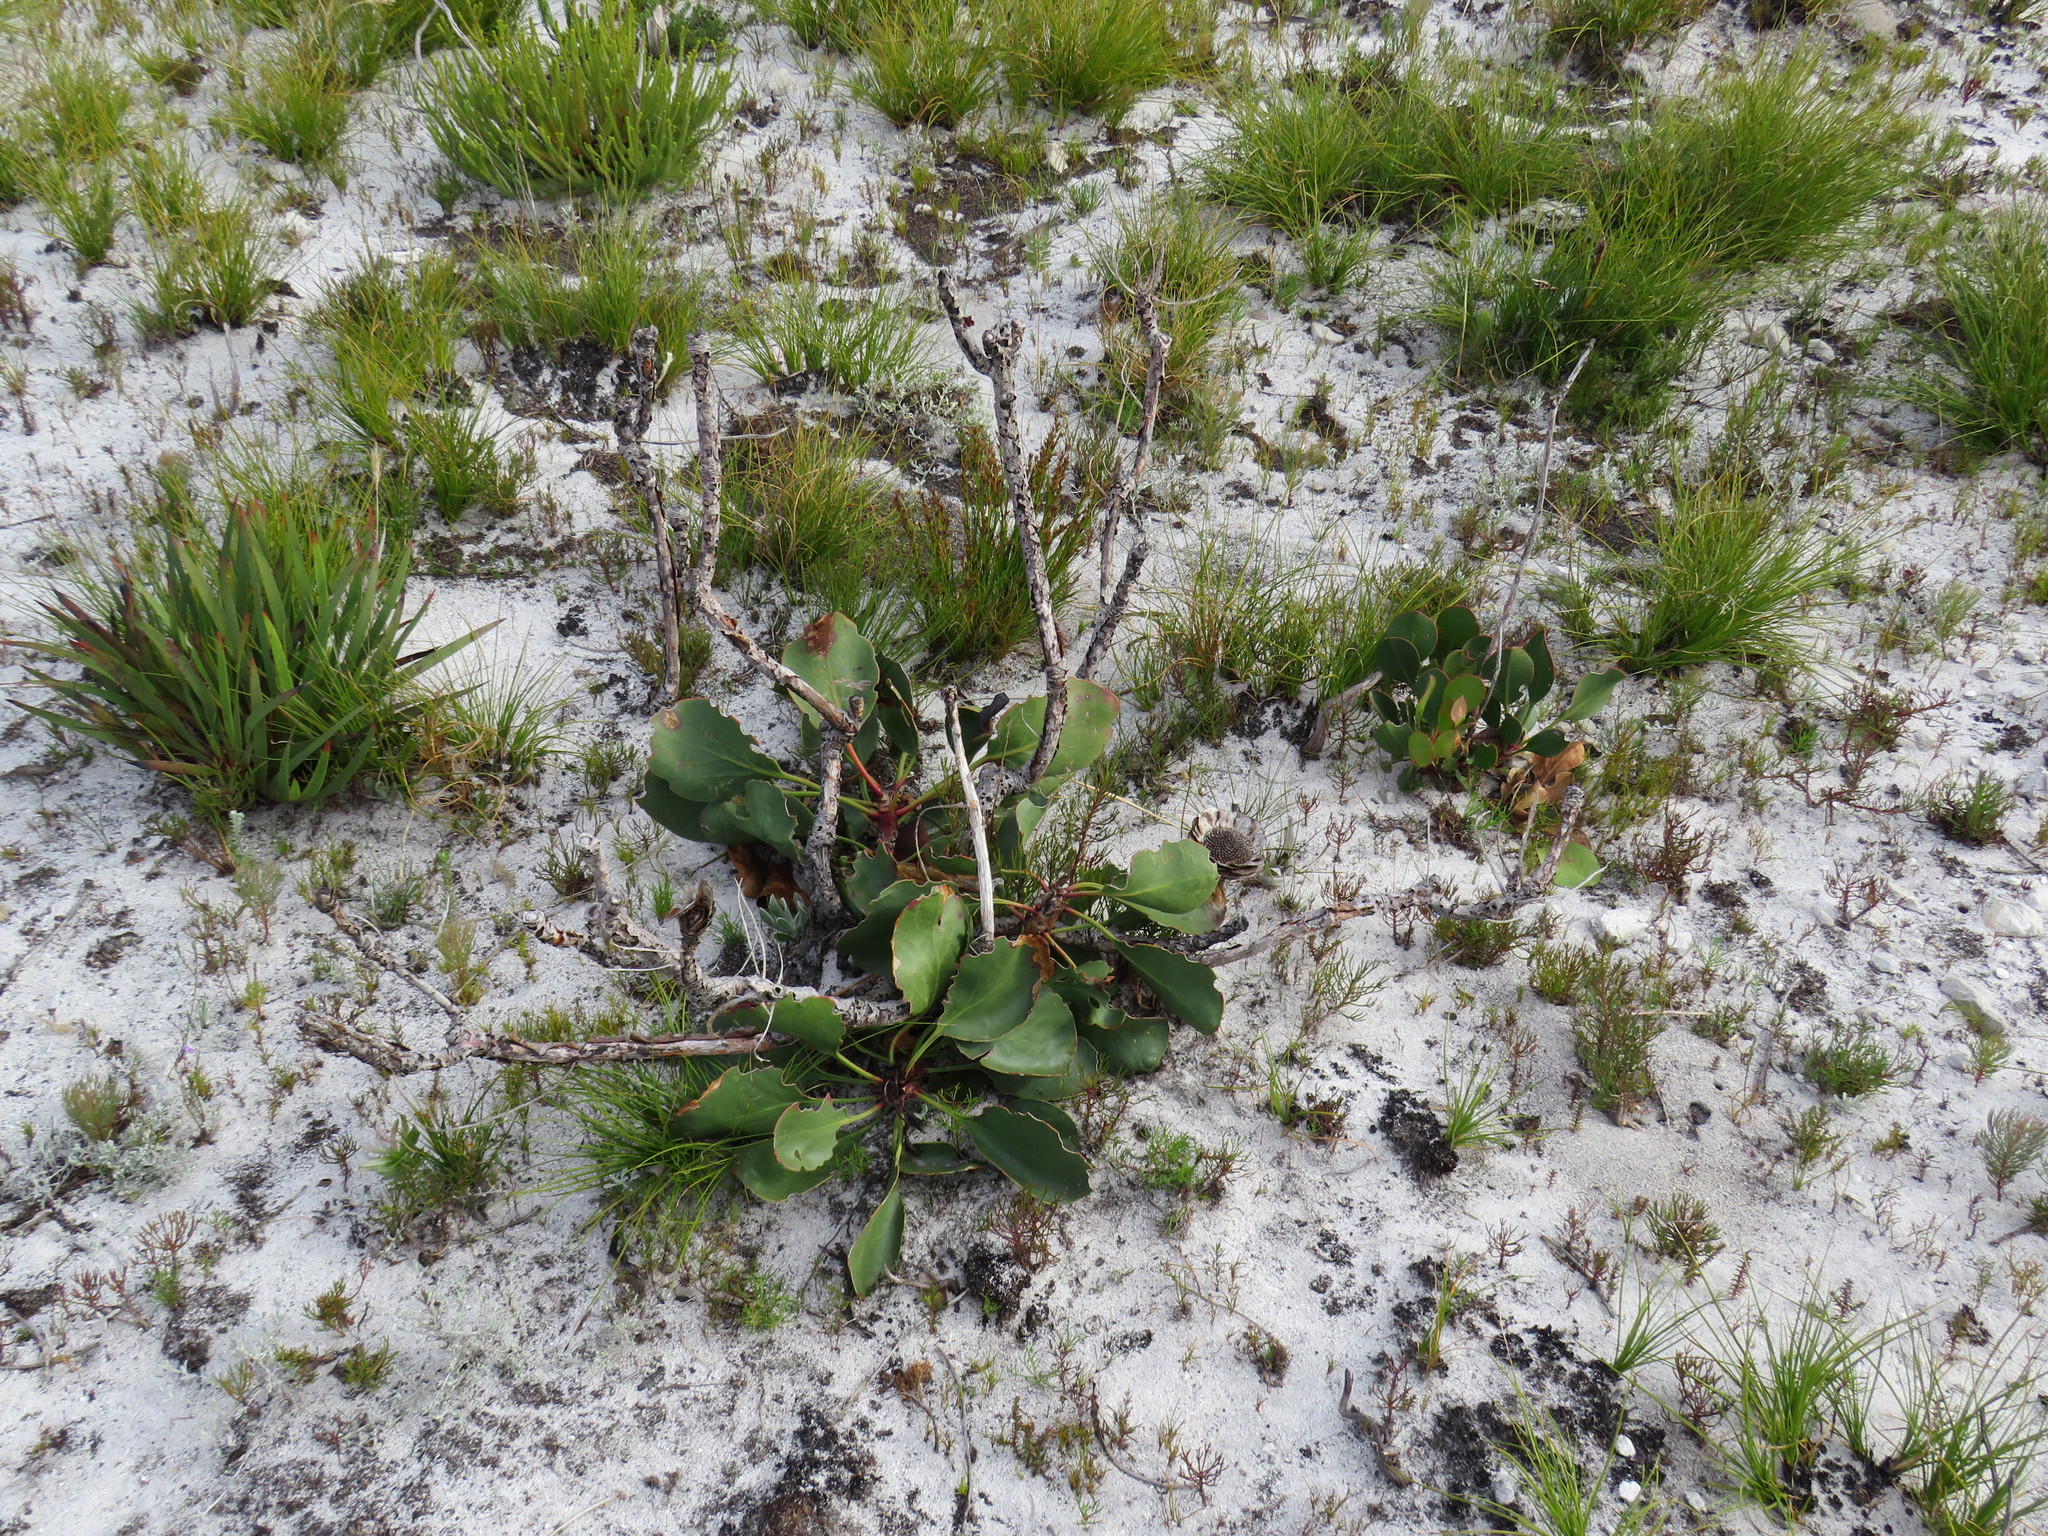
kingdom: Plantae
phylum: Tracheophyta
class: Magnoliopsida
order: Proteales
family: Proteaceae
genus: Protea
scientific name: Protea cynaroides
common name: King protea
